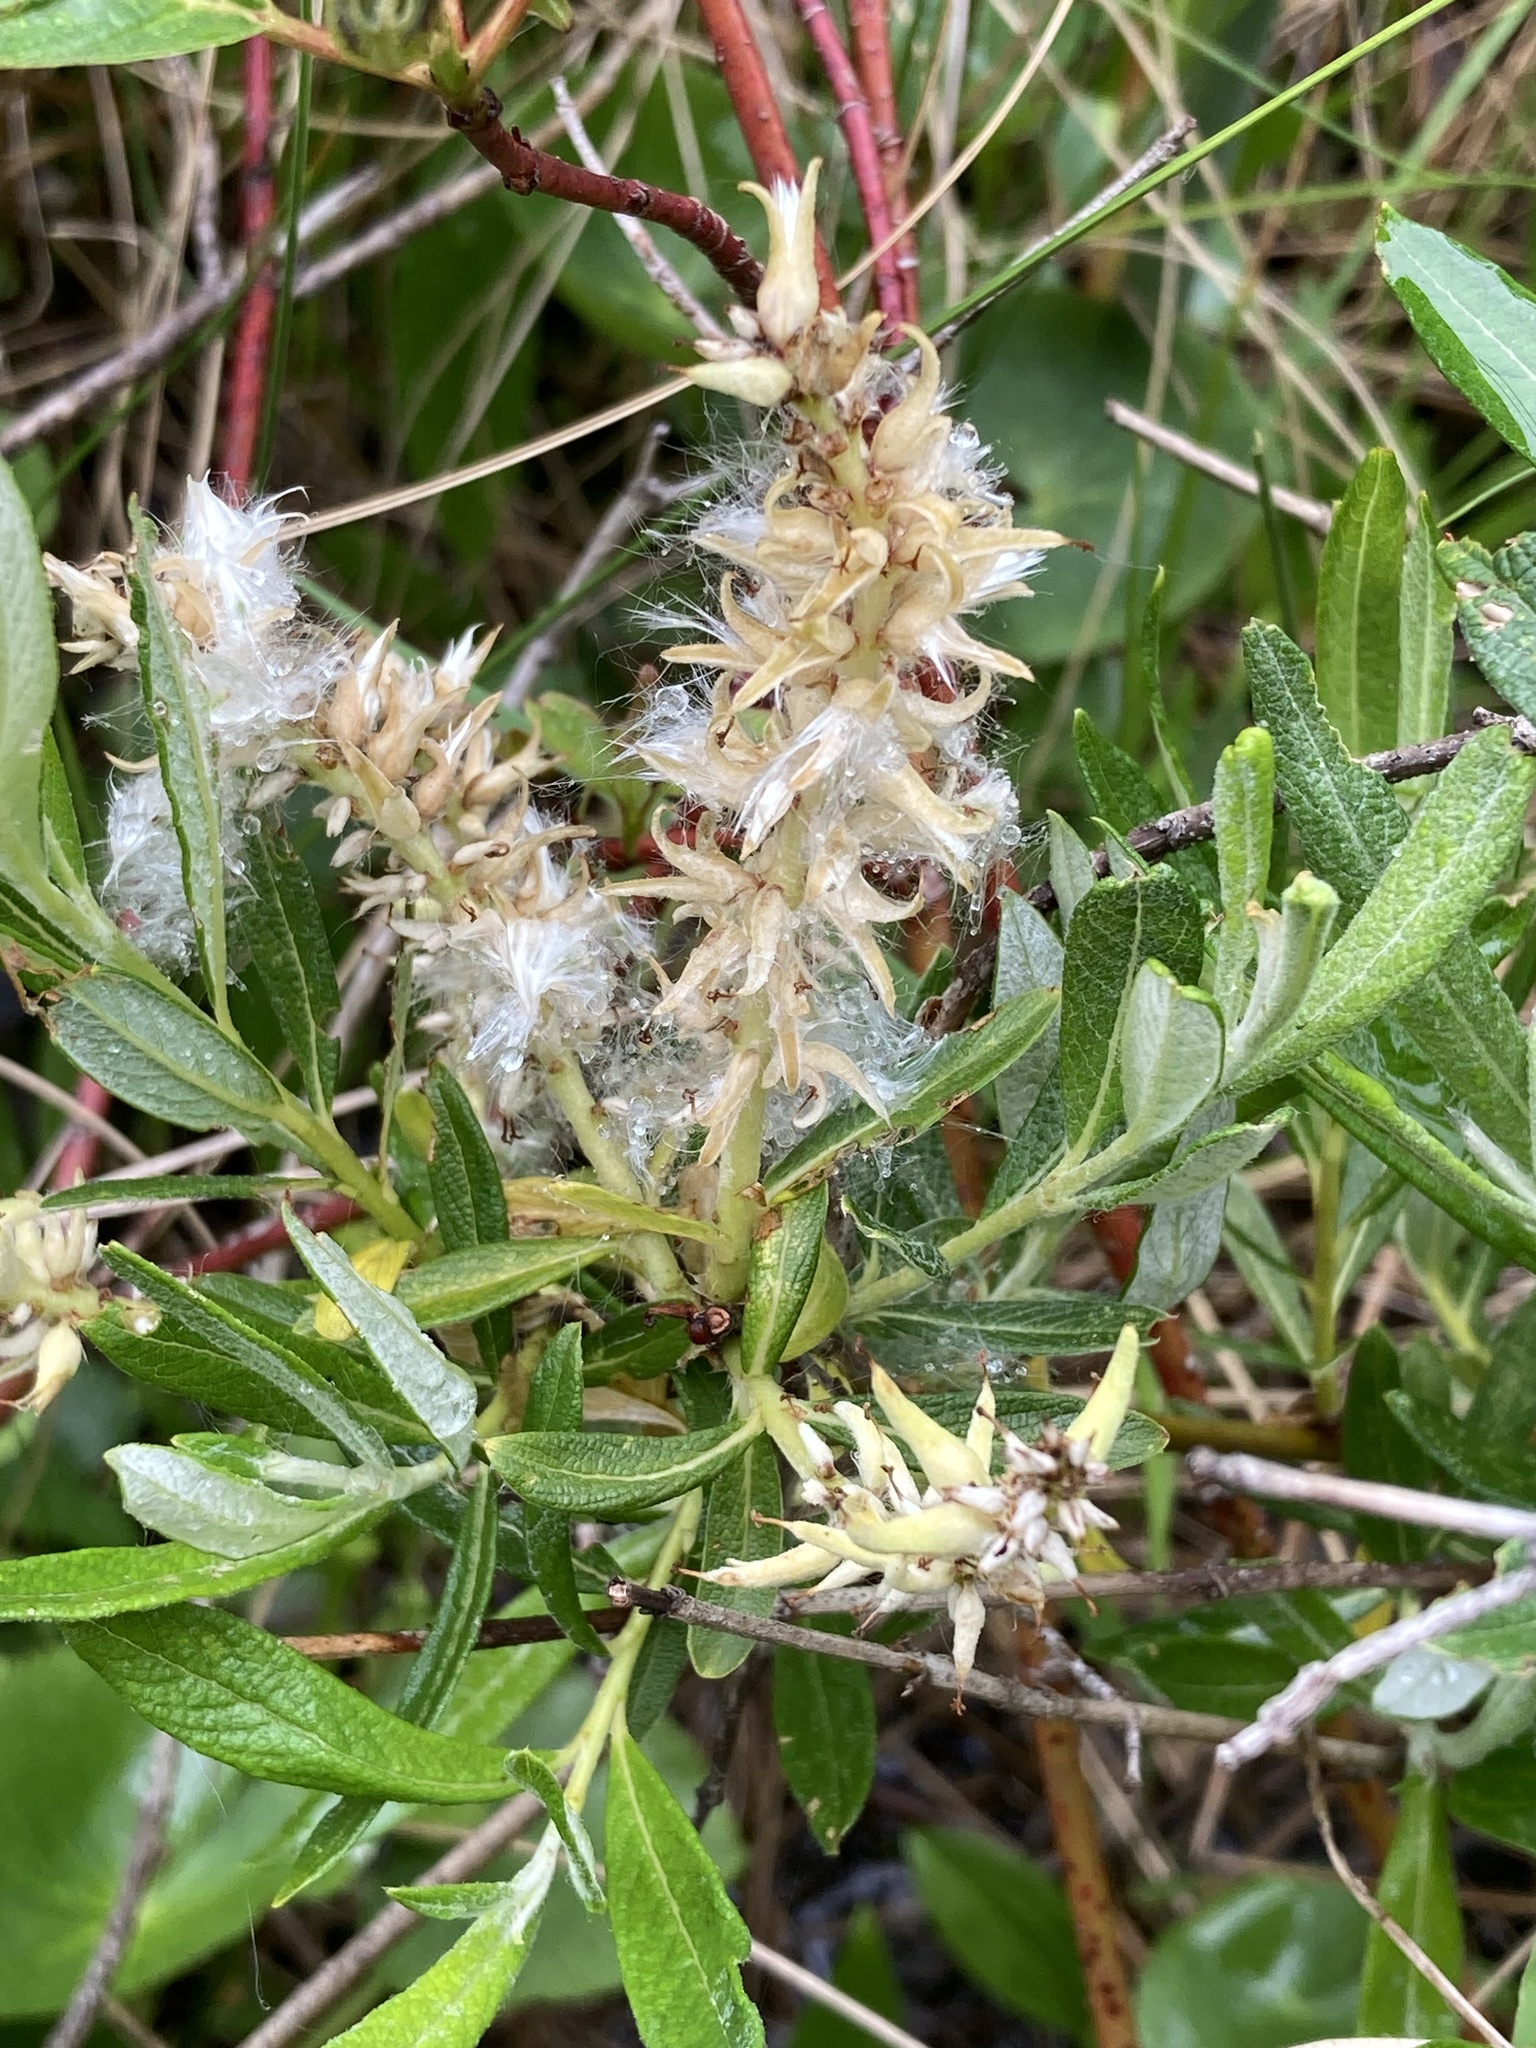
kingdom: Plantae
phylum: Tracheophyta
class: Magnoliopsida
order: Malpighiales
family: Salicaceae
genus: Salix
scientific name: Salix candida
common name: Hoary willow
